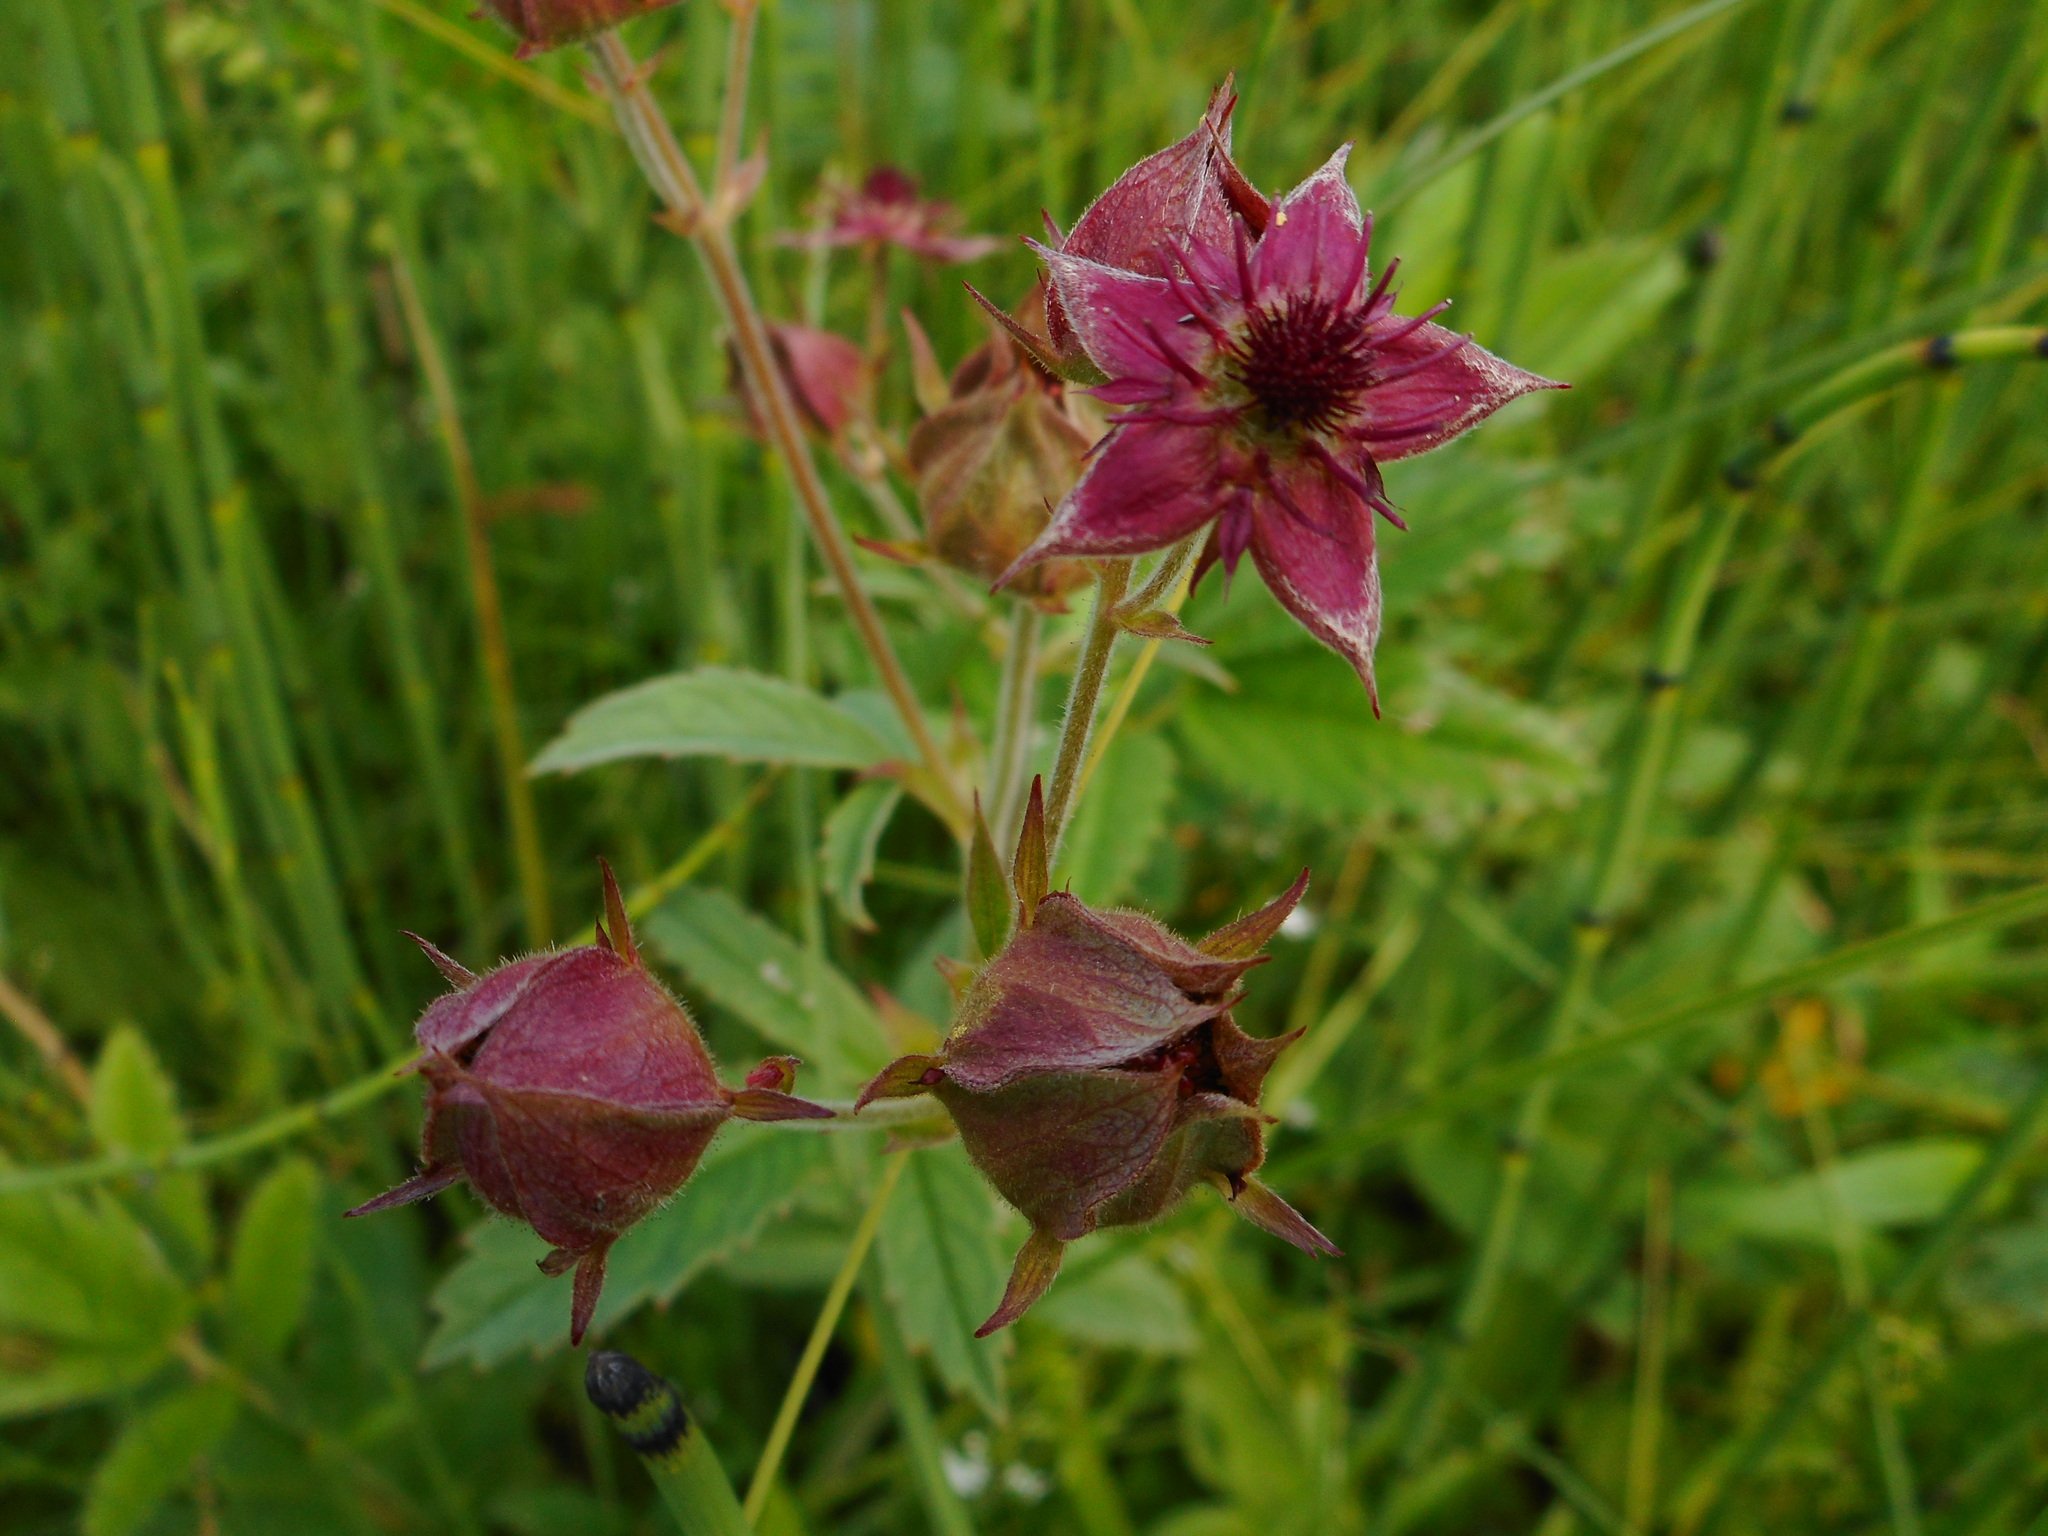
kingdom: Plantae
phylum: Tracheophyta
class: Magnoliopsida
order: Rosales
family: Rosaceae
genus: Comarum
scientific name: Comarum palustre
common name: Marsh cinquefoil
